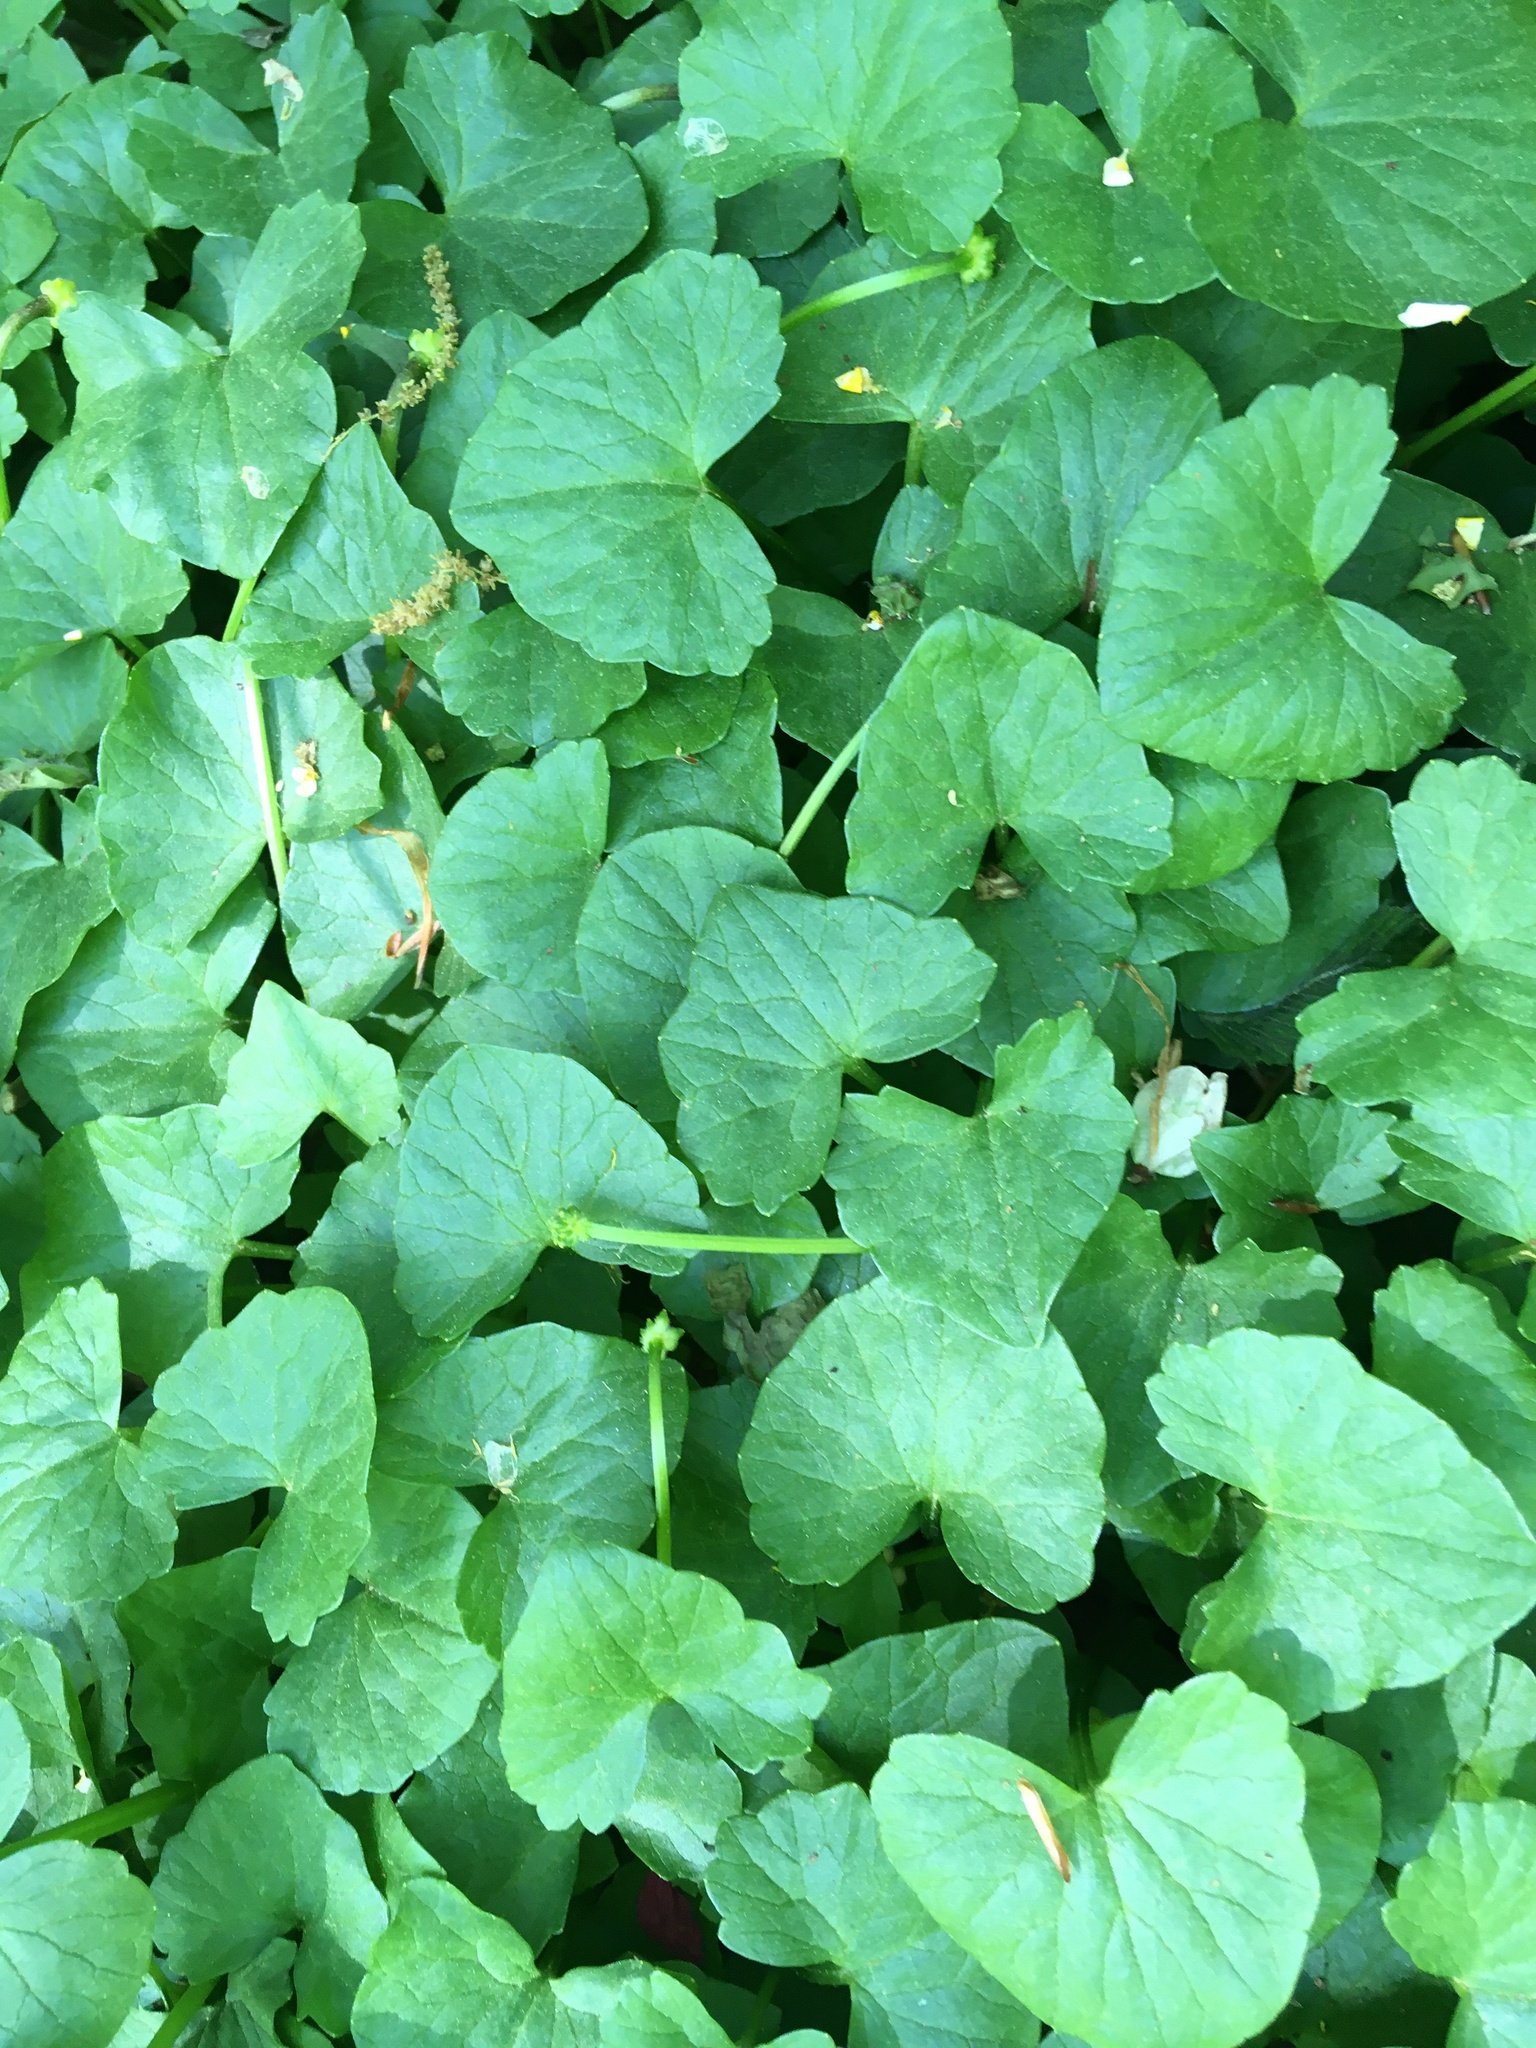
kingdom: Plantae
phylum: Tracheophyta
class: Magnoliopsida
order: Ranunculales
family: Ranunculaceae
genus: Ficaria
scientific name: Ficaria verna
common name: Lesser celandine
